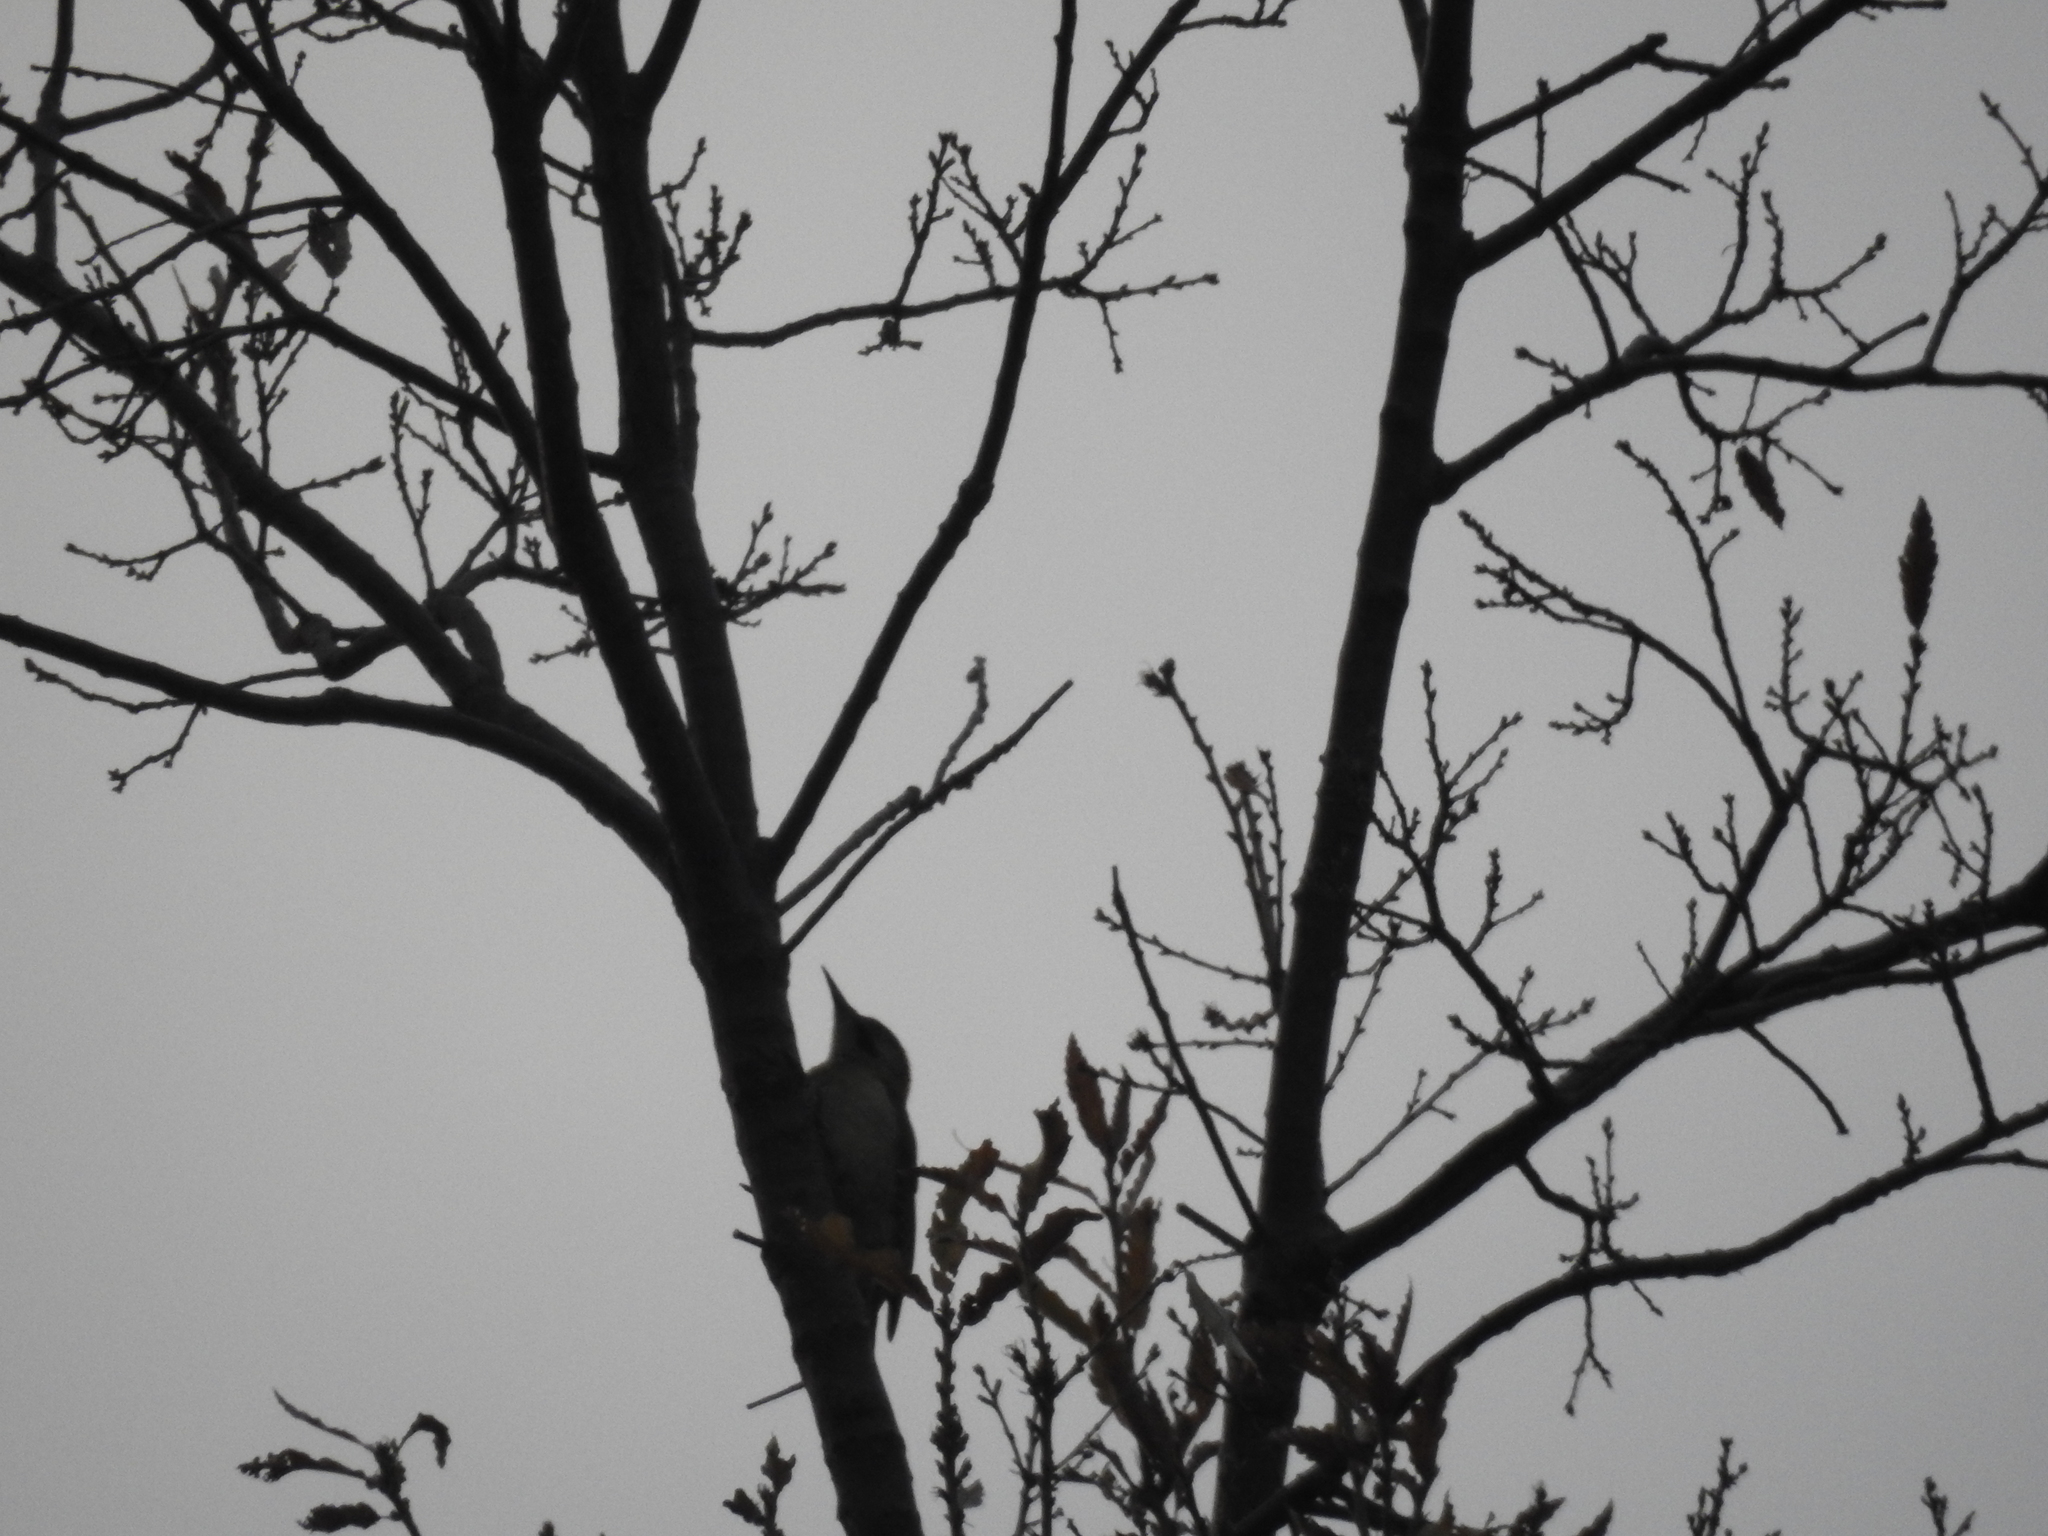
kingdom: Animalia
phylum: Chordata
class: Aves
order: Piciformes
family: Picidae
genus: Picus
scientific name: Picus vaillantii
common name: Levaillant's woodpecker
